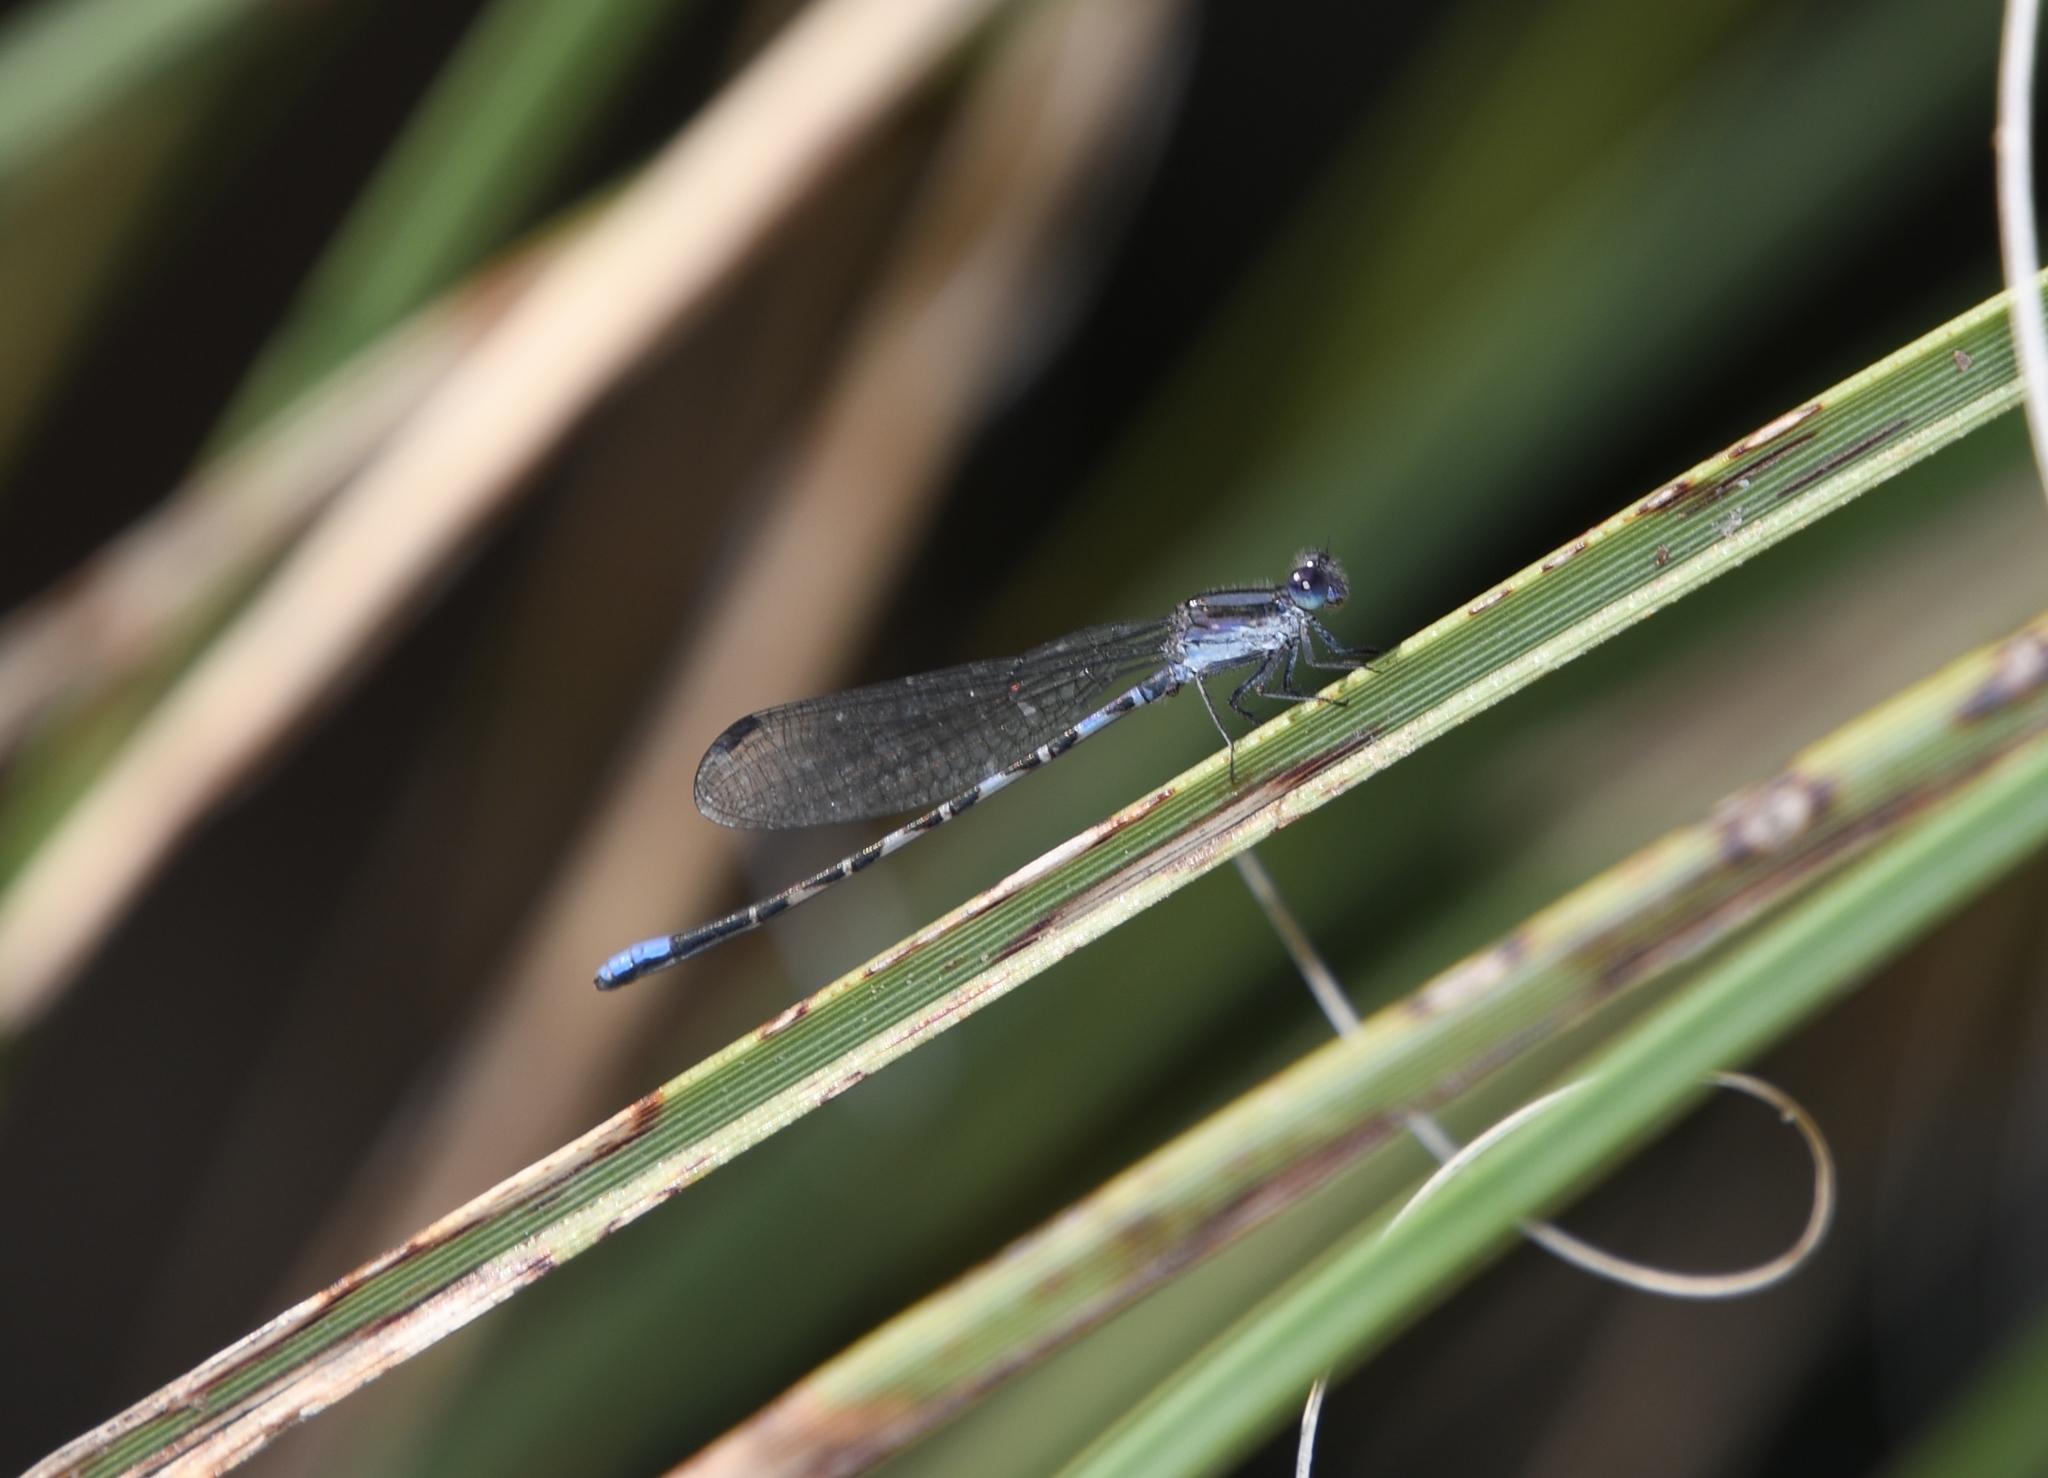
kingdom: Animalia
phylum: Arthropoda
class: Insecta
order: Odonata
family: Coenagrionidae
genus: Argia
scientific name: Argia immunda
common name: Kiowa dancer
